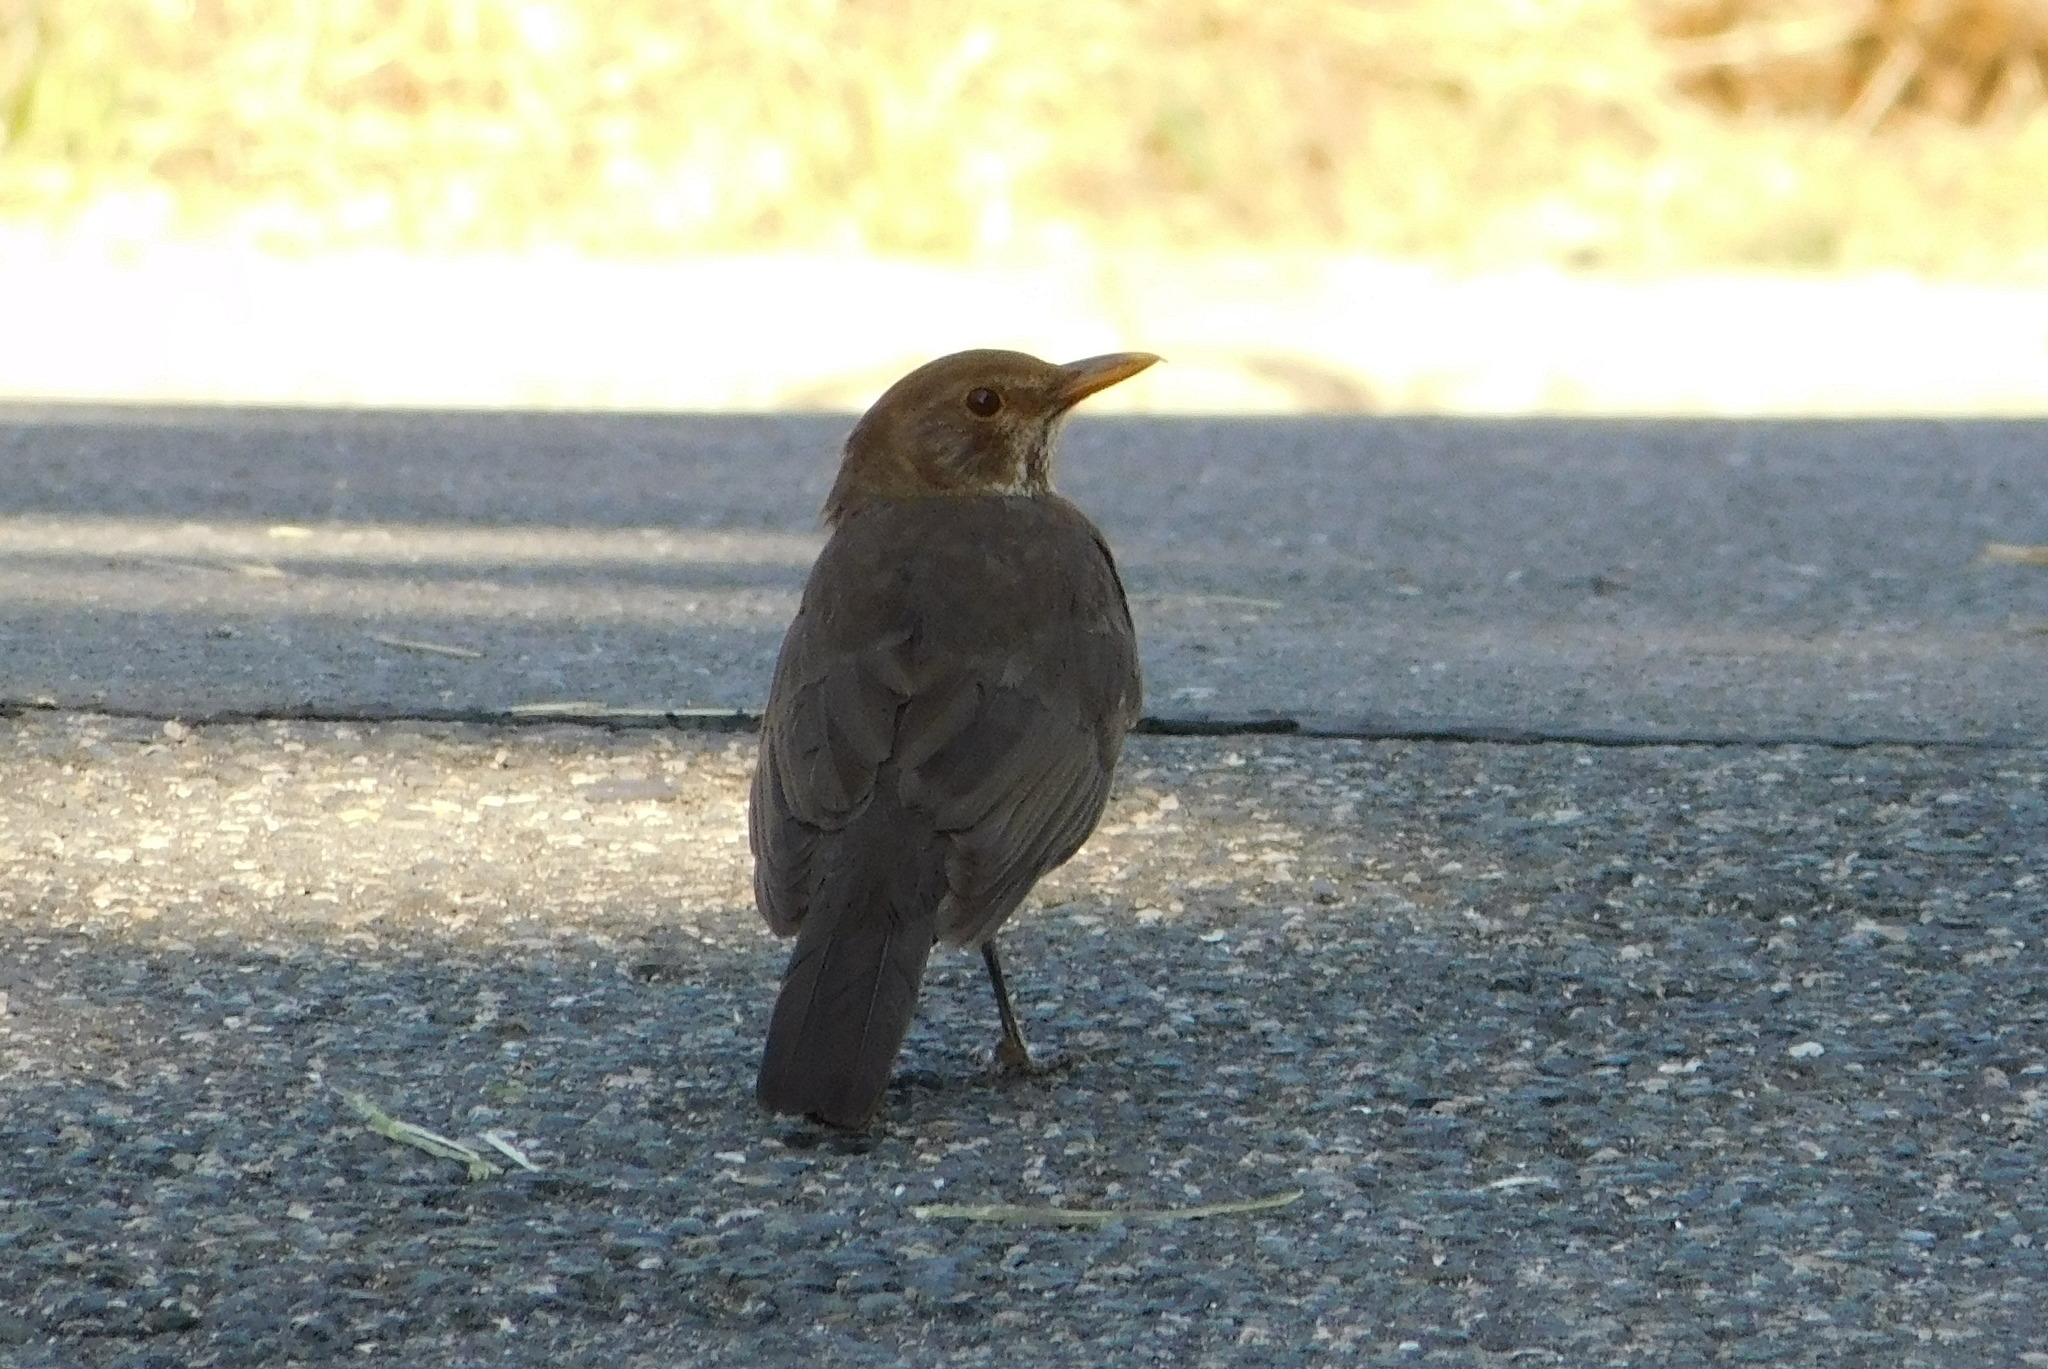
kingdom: Animalia
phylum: Chordata
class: Aves
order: Passeriformes
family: Turdidae
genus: Turdus
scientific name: Turdus merula
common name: Common blackbird
